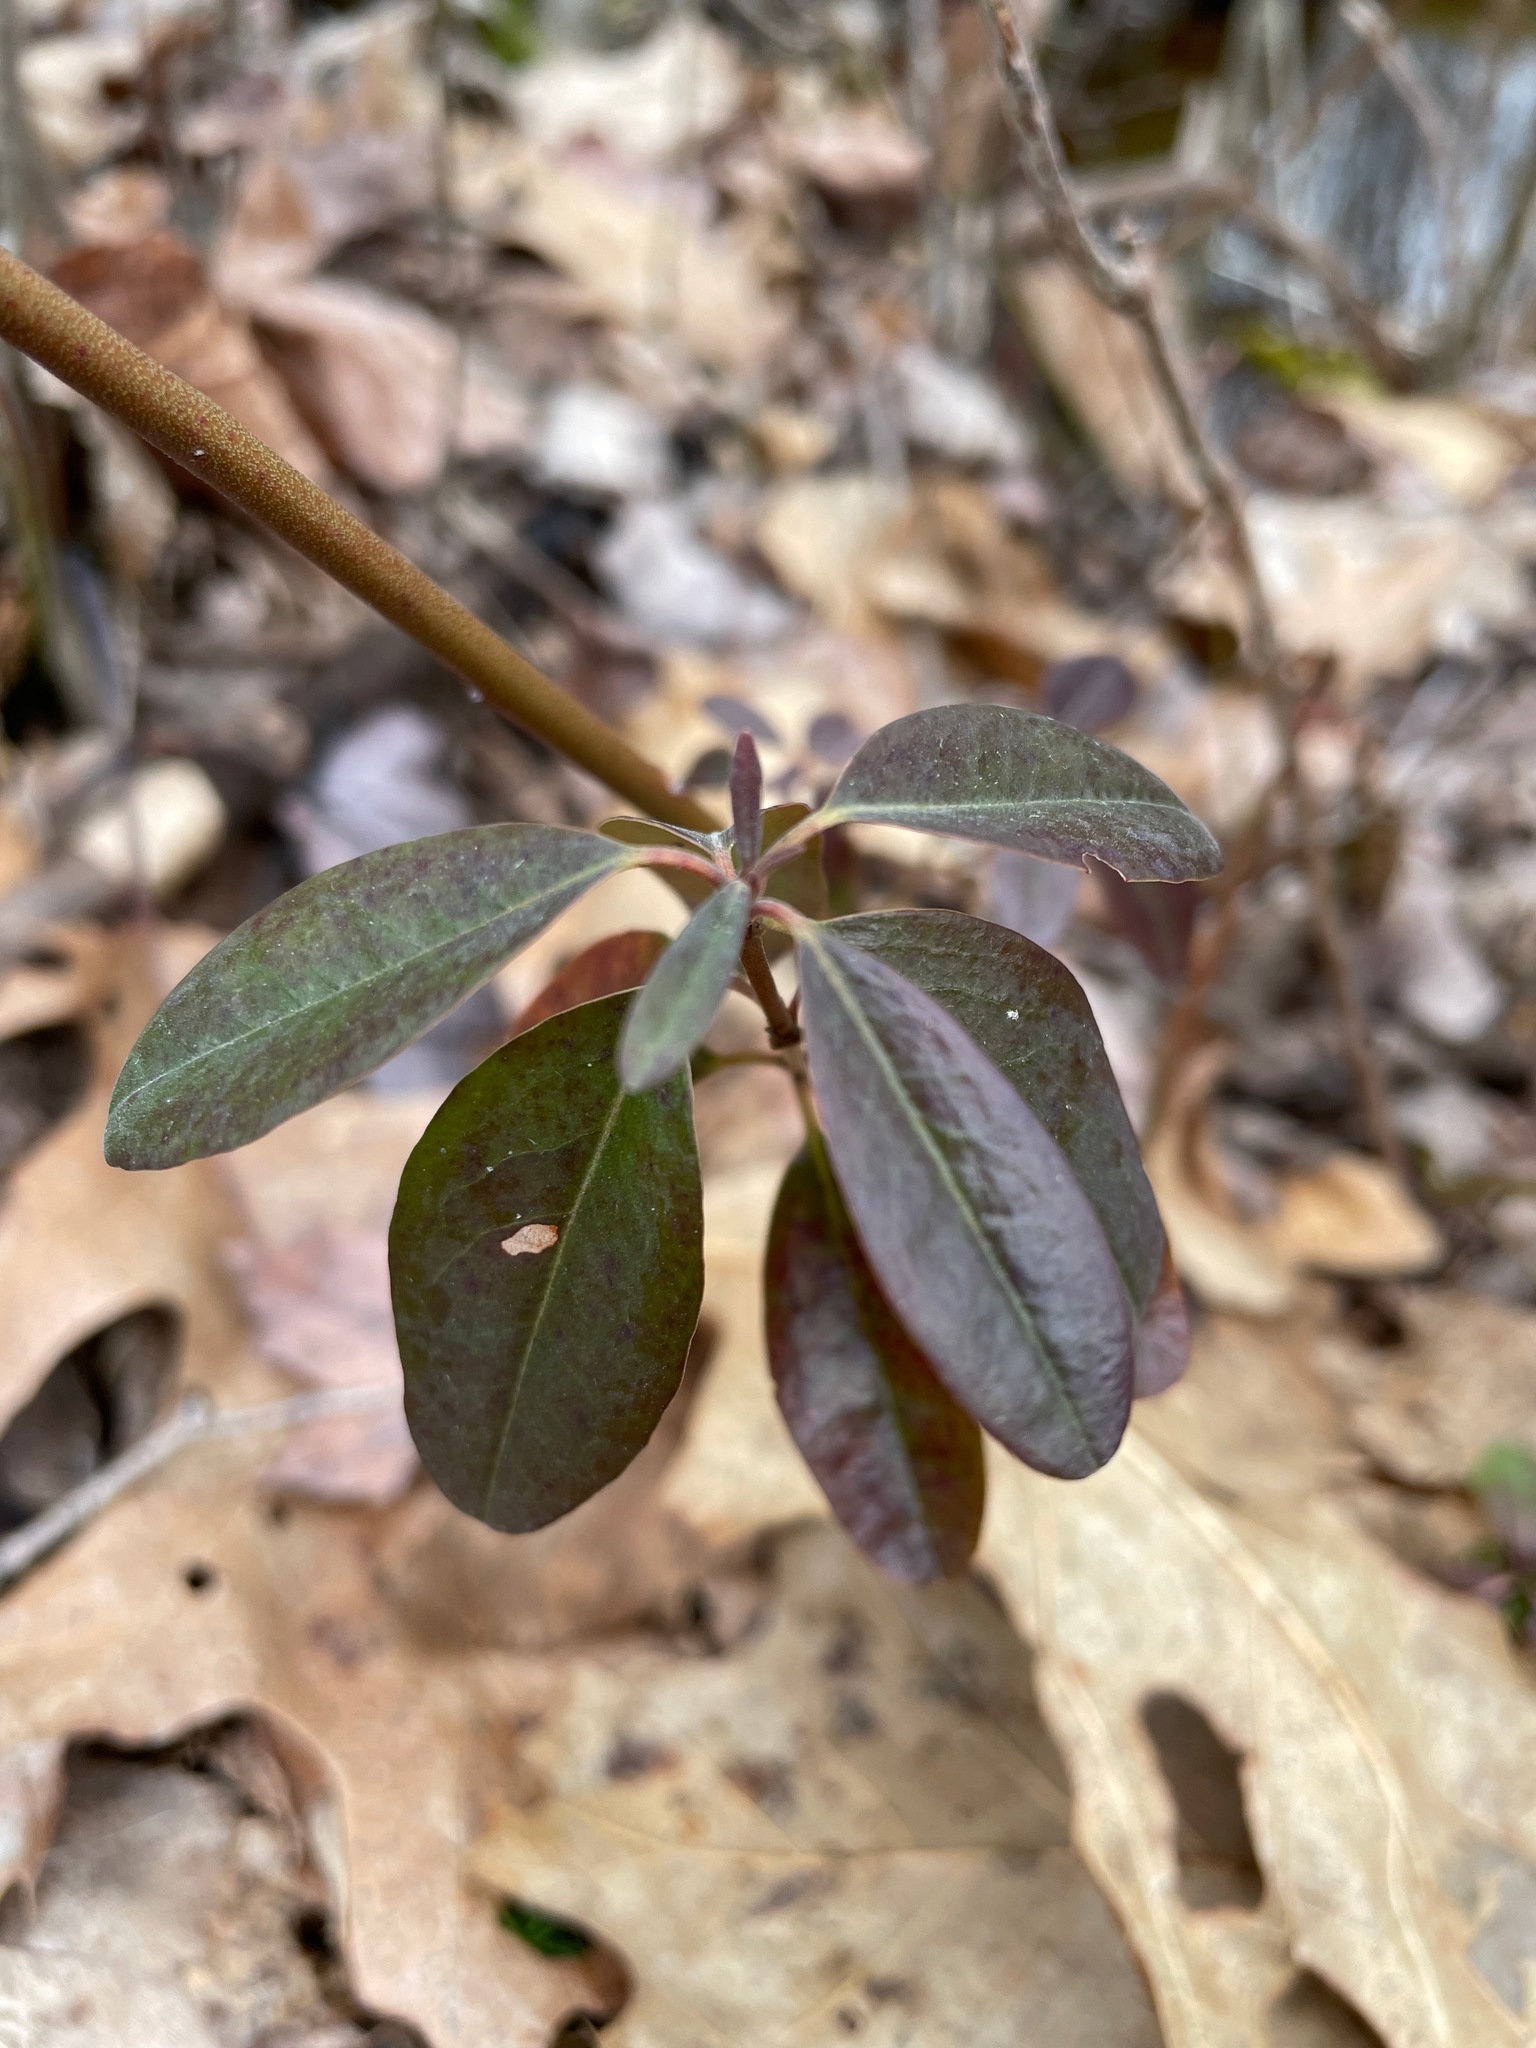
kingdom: Plantae
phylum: Tracheophyta
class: Magnoliopsida
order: Ericales
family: Ericaceae
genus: Kalmia
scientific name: Kalmia angustifolia
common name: Sheep-laurel
